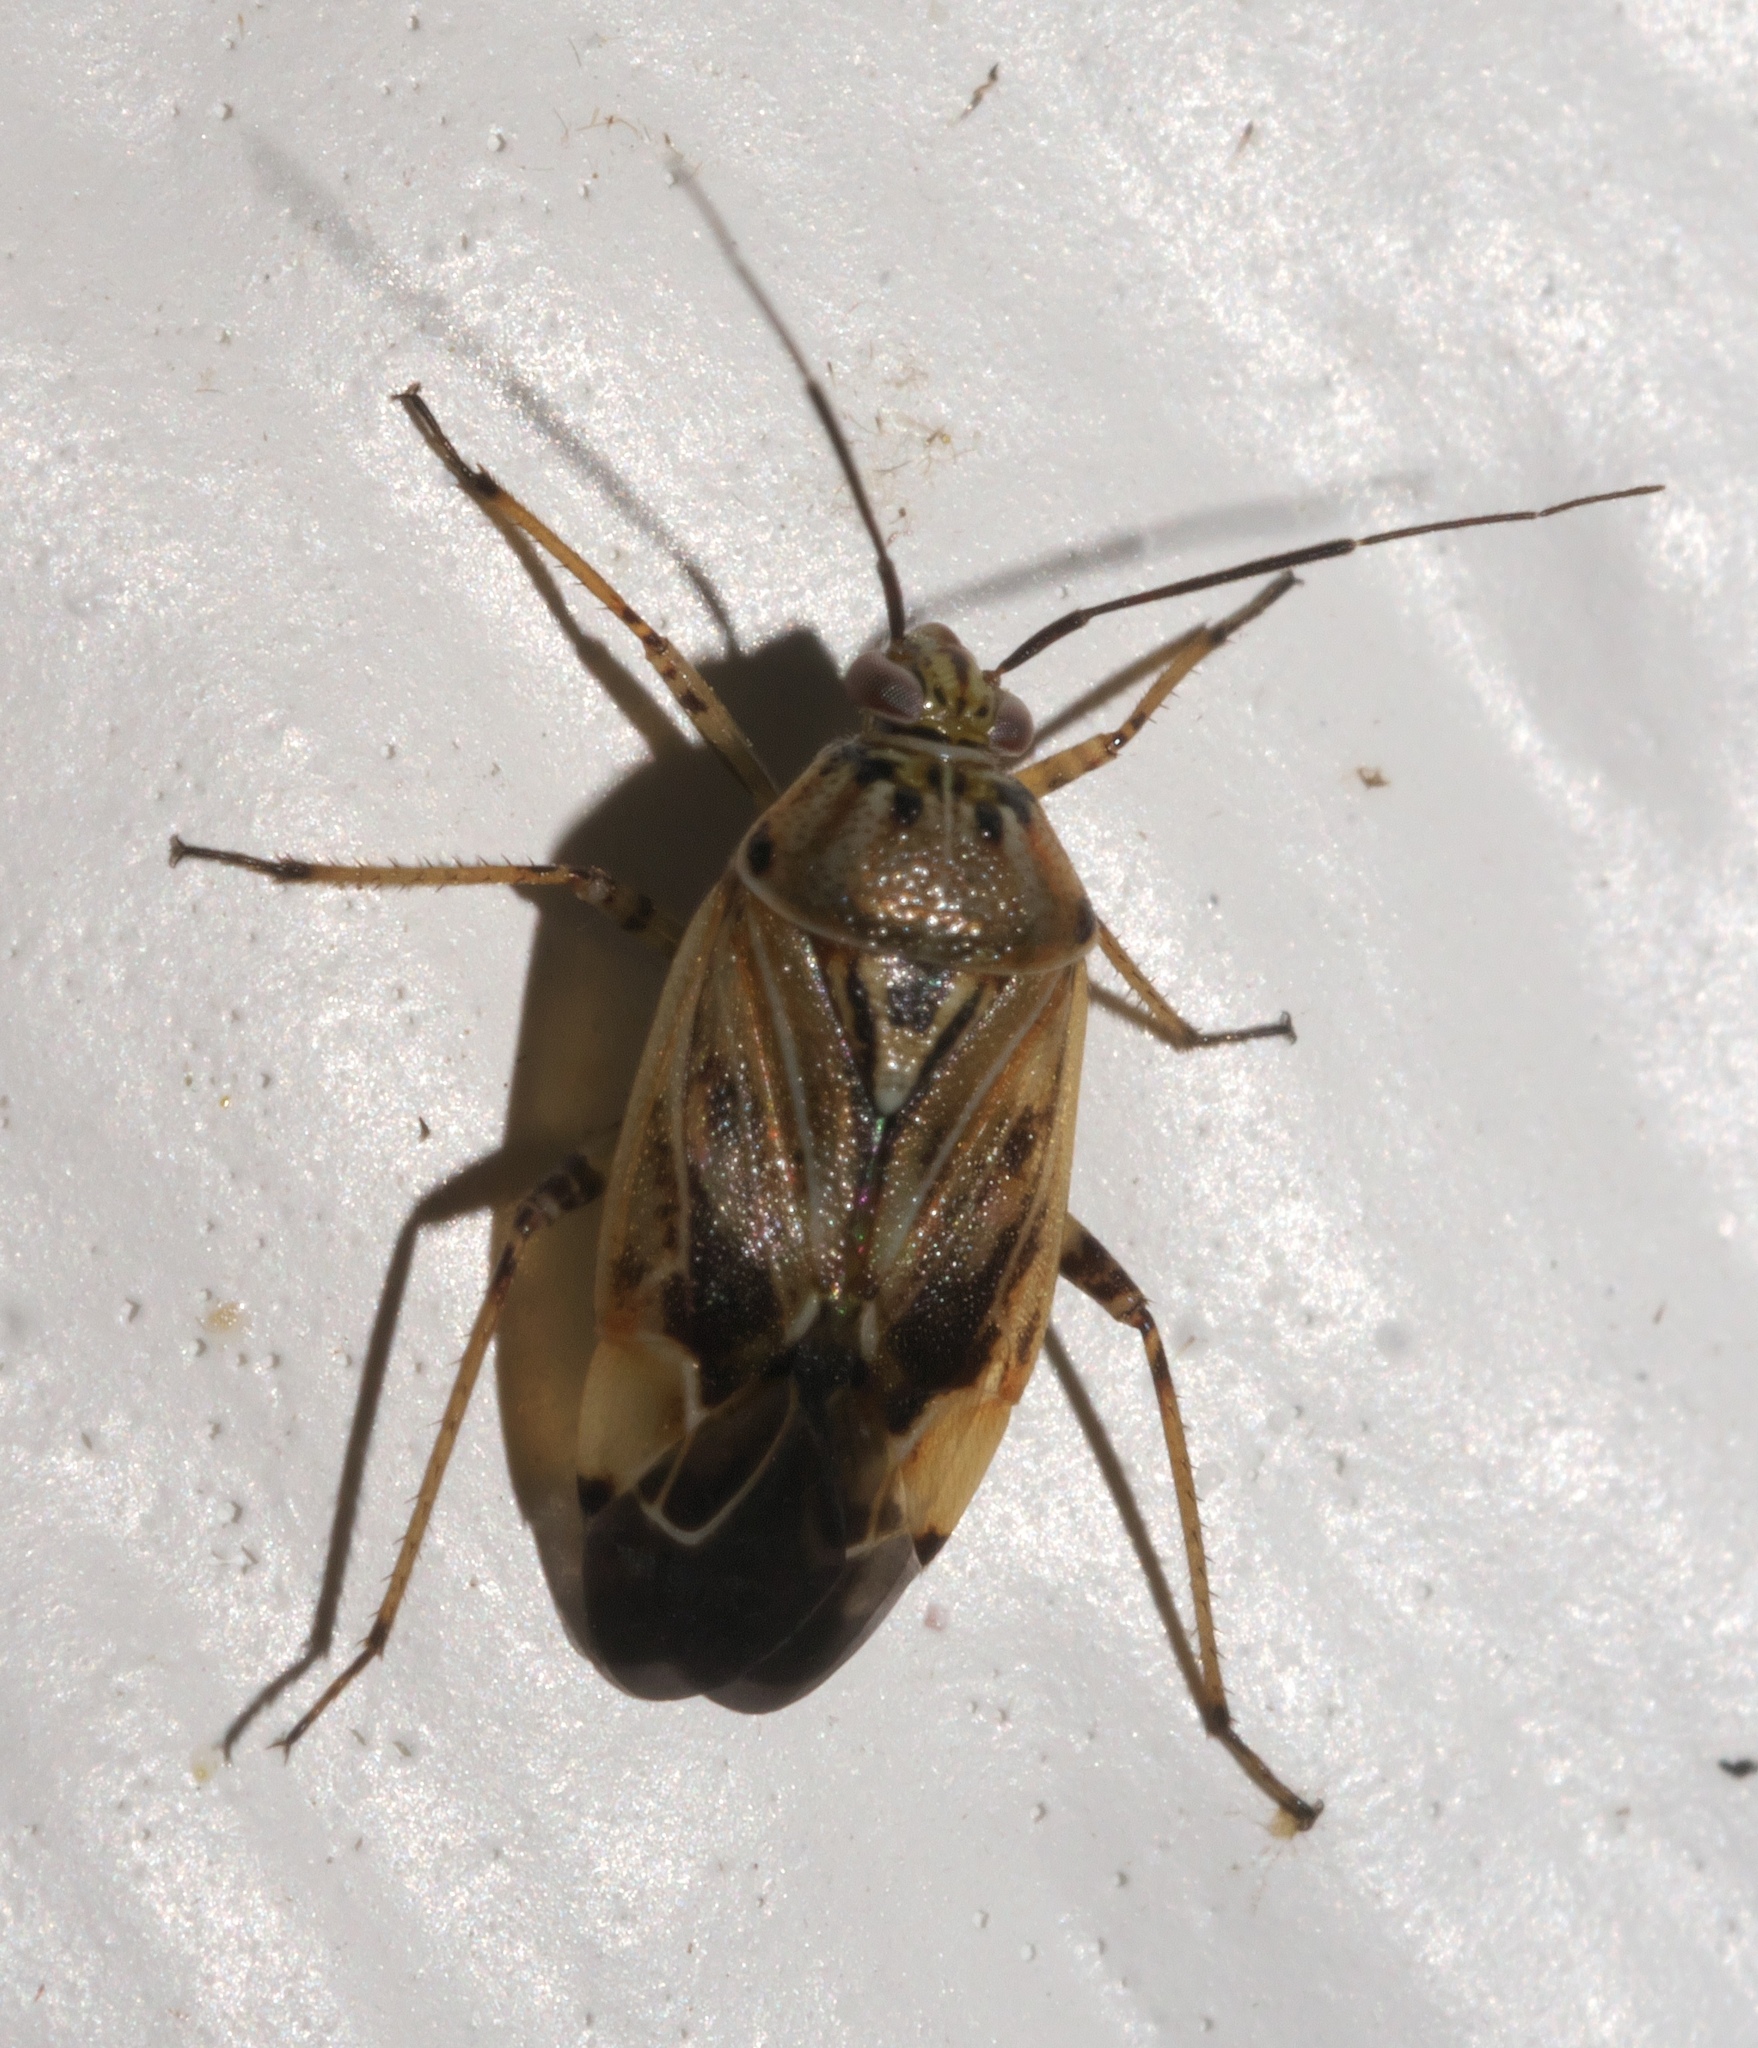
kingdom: Animalia
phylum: Arthropoda
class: Insecta
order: Hemiptera
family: Miridae
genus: Lygus
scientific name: Lygus lineolaris
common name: North american tarnished plant bug
